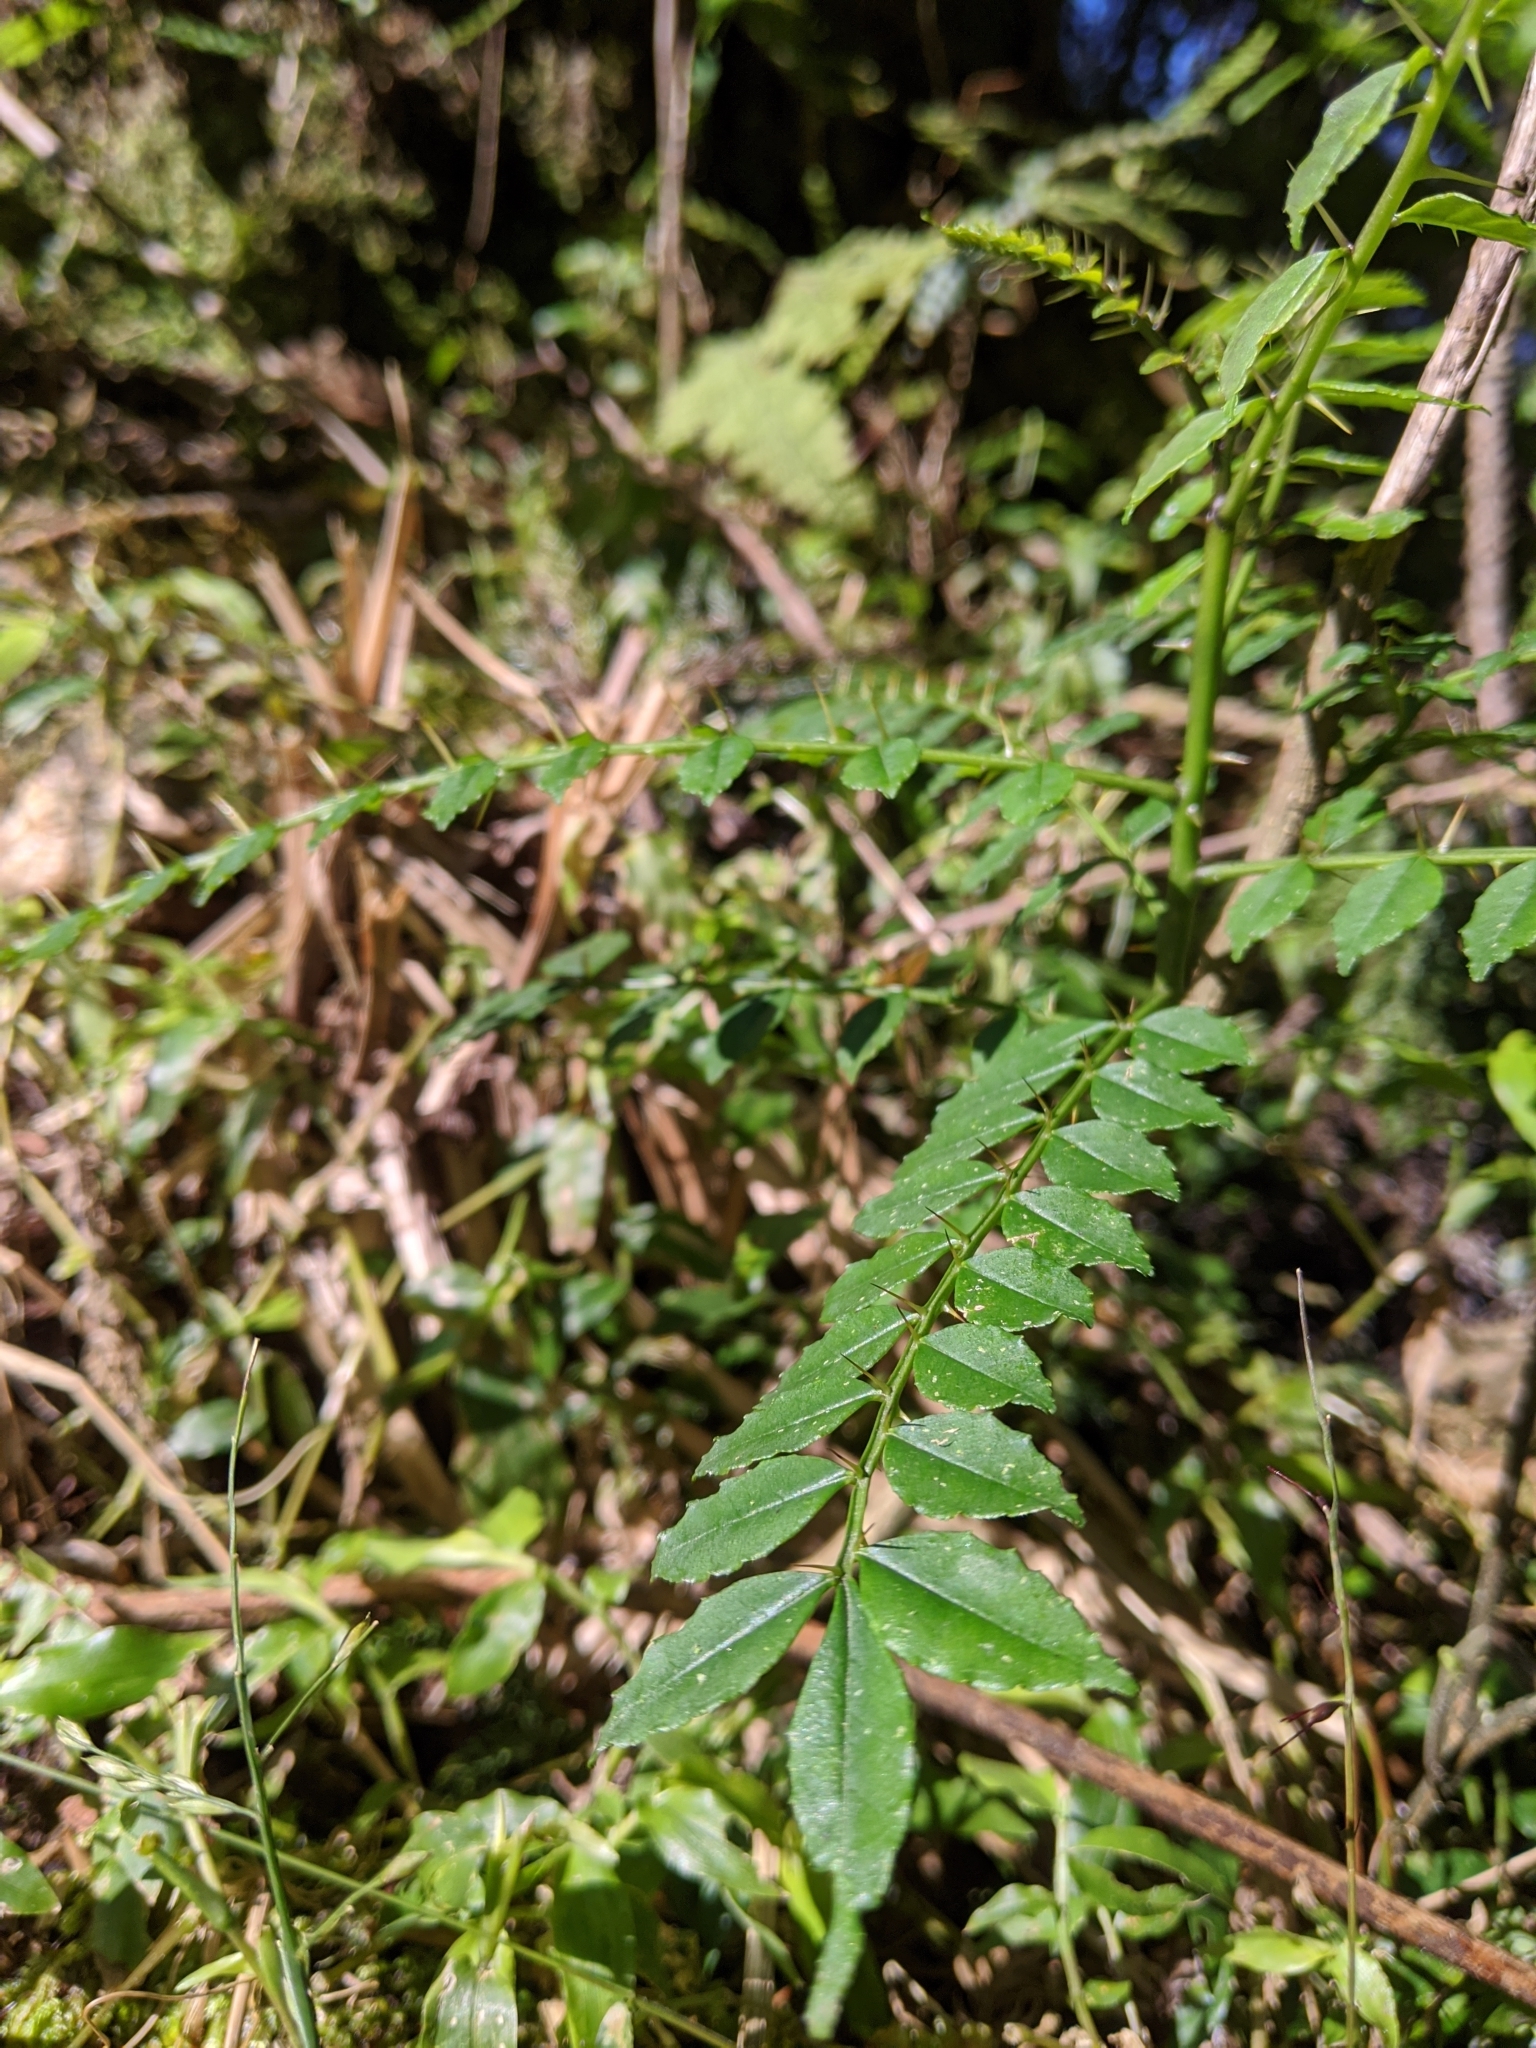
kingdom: Plantae
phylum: Tracheophyta
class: Magnoliopsida
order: Sapindales
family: Rutaceae
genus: Zanthoxylum
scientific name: Zanthoxylum scandens
